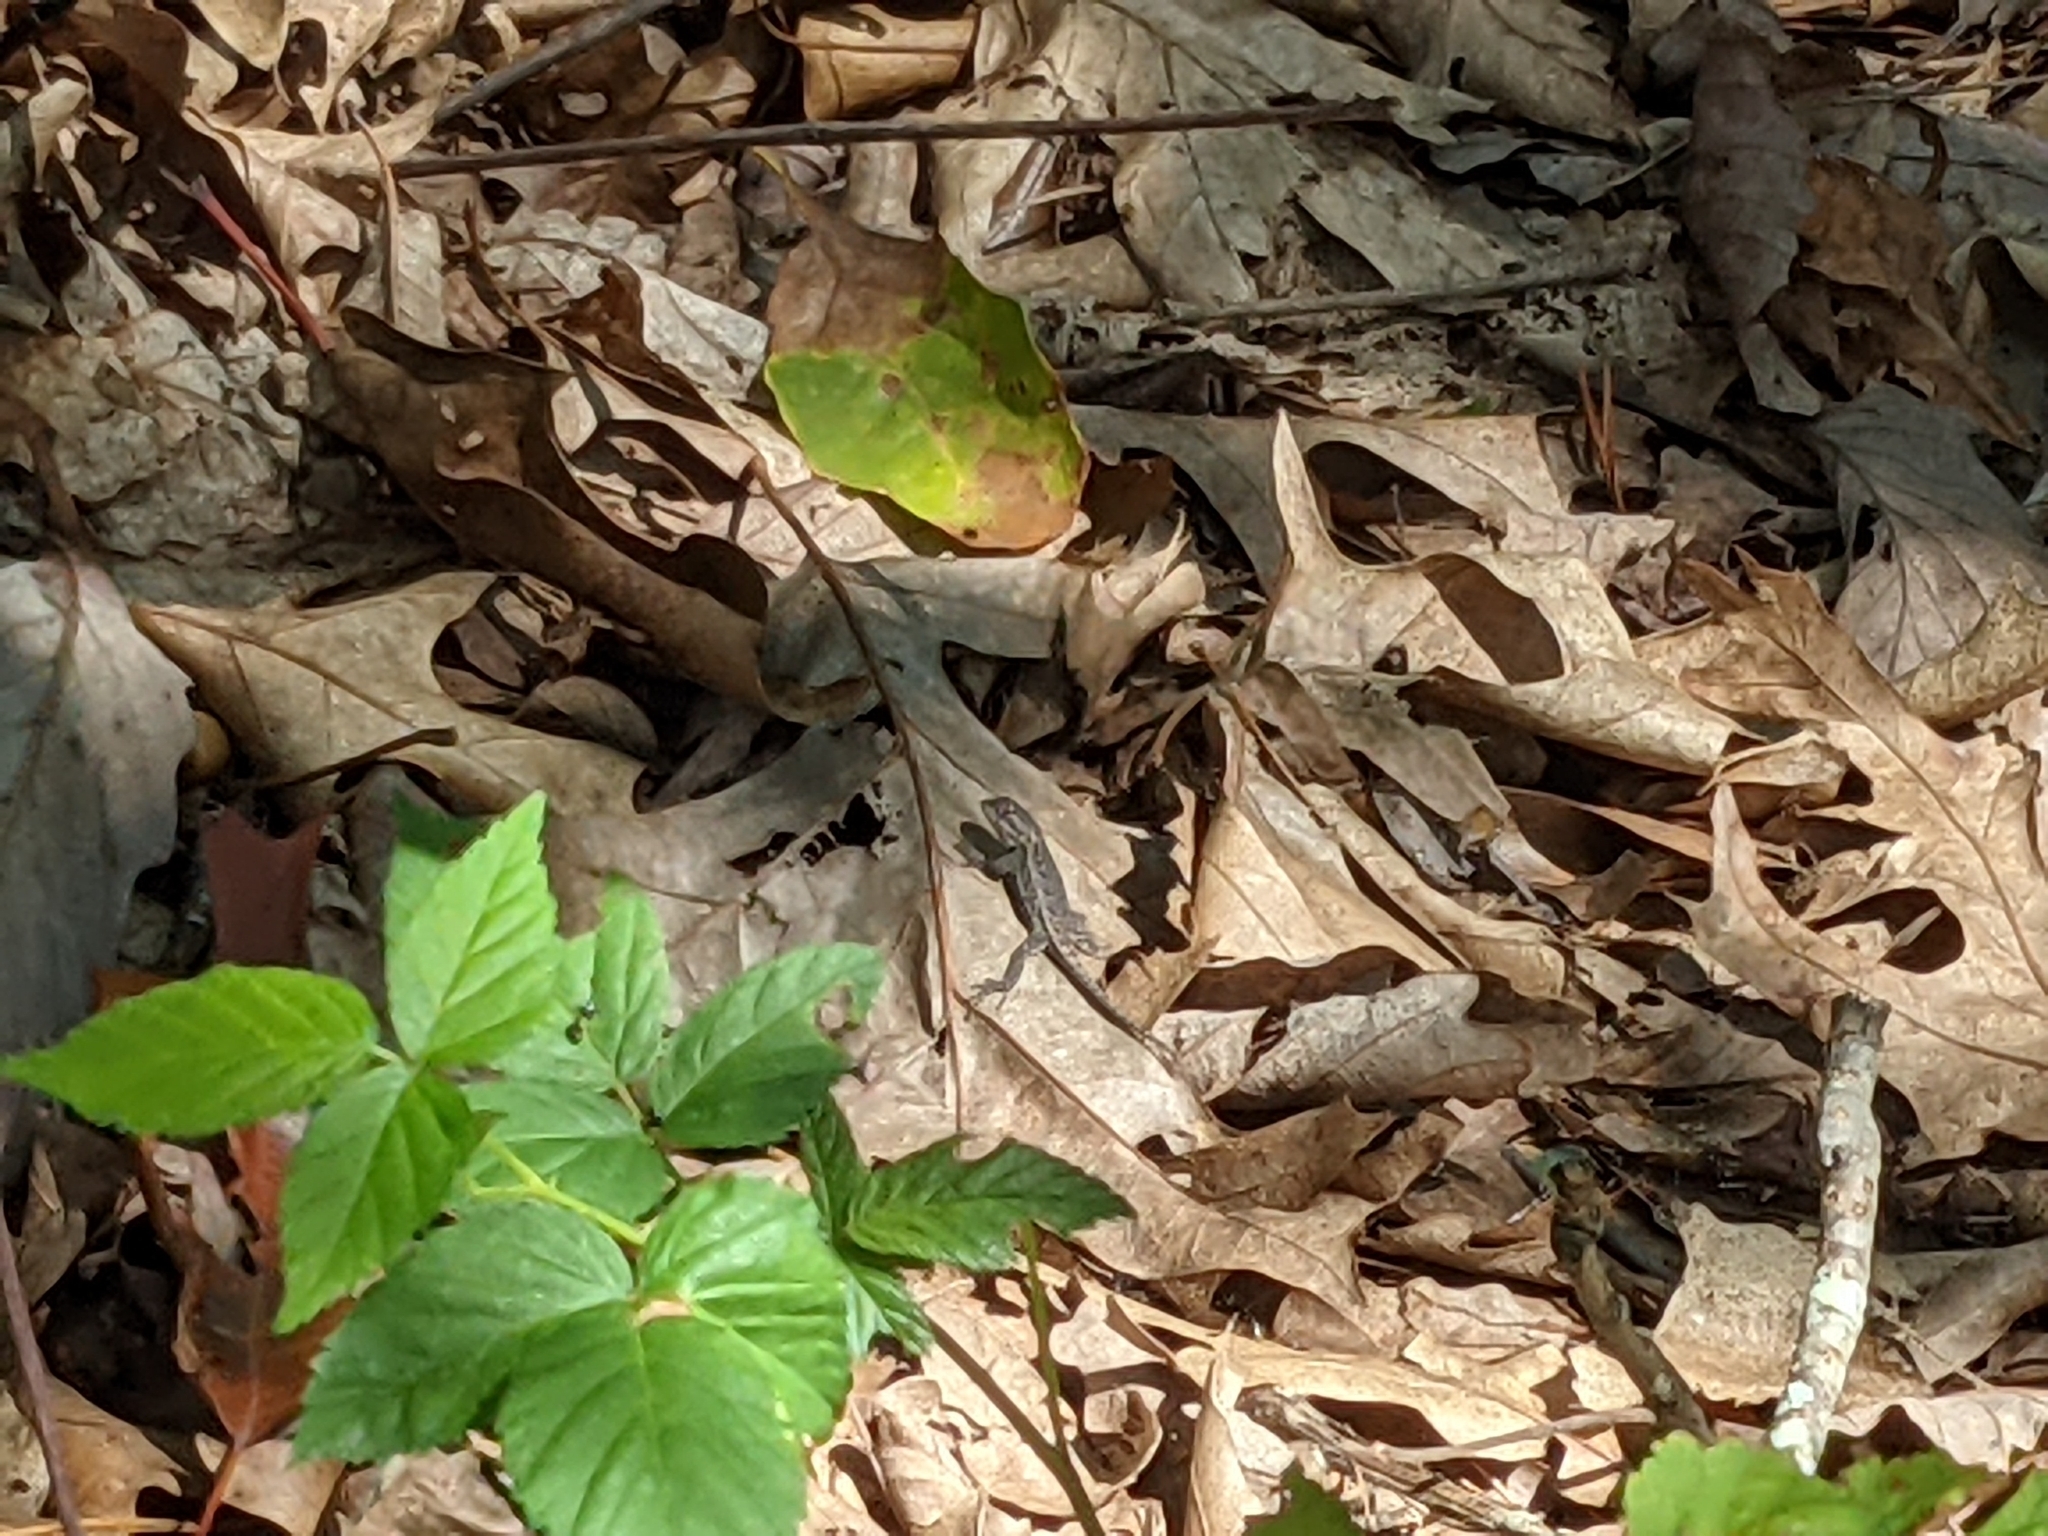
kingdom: Animalia
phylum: Chordata
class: Squamata
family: Phrynosomatidae
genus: Sceloporus
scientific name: Sceloporus undulatus
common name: Eastern fence lizard
